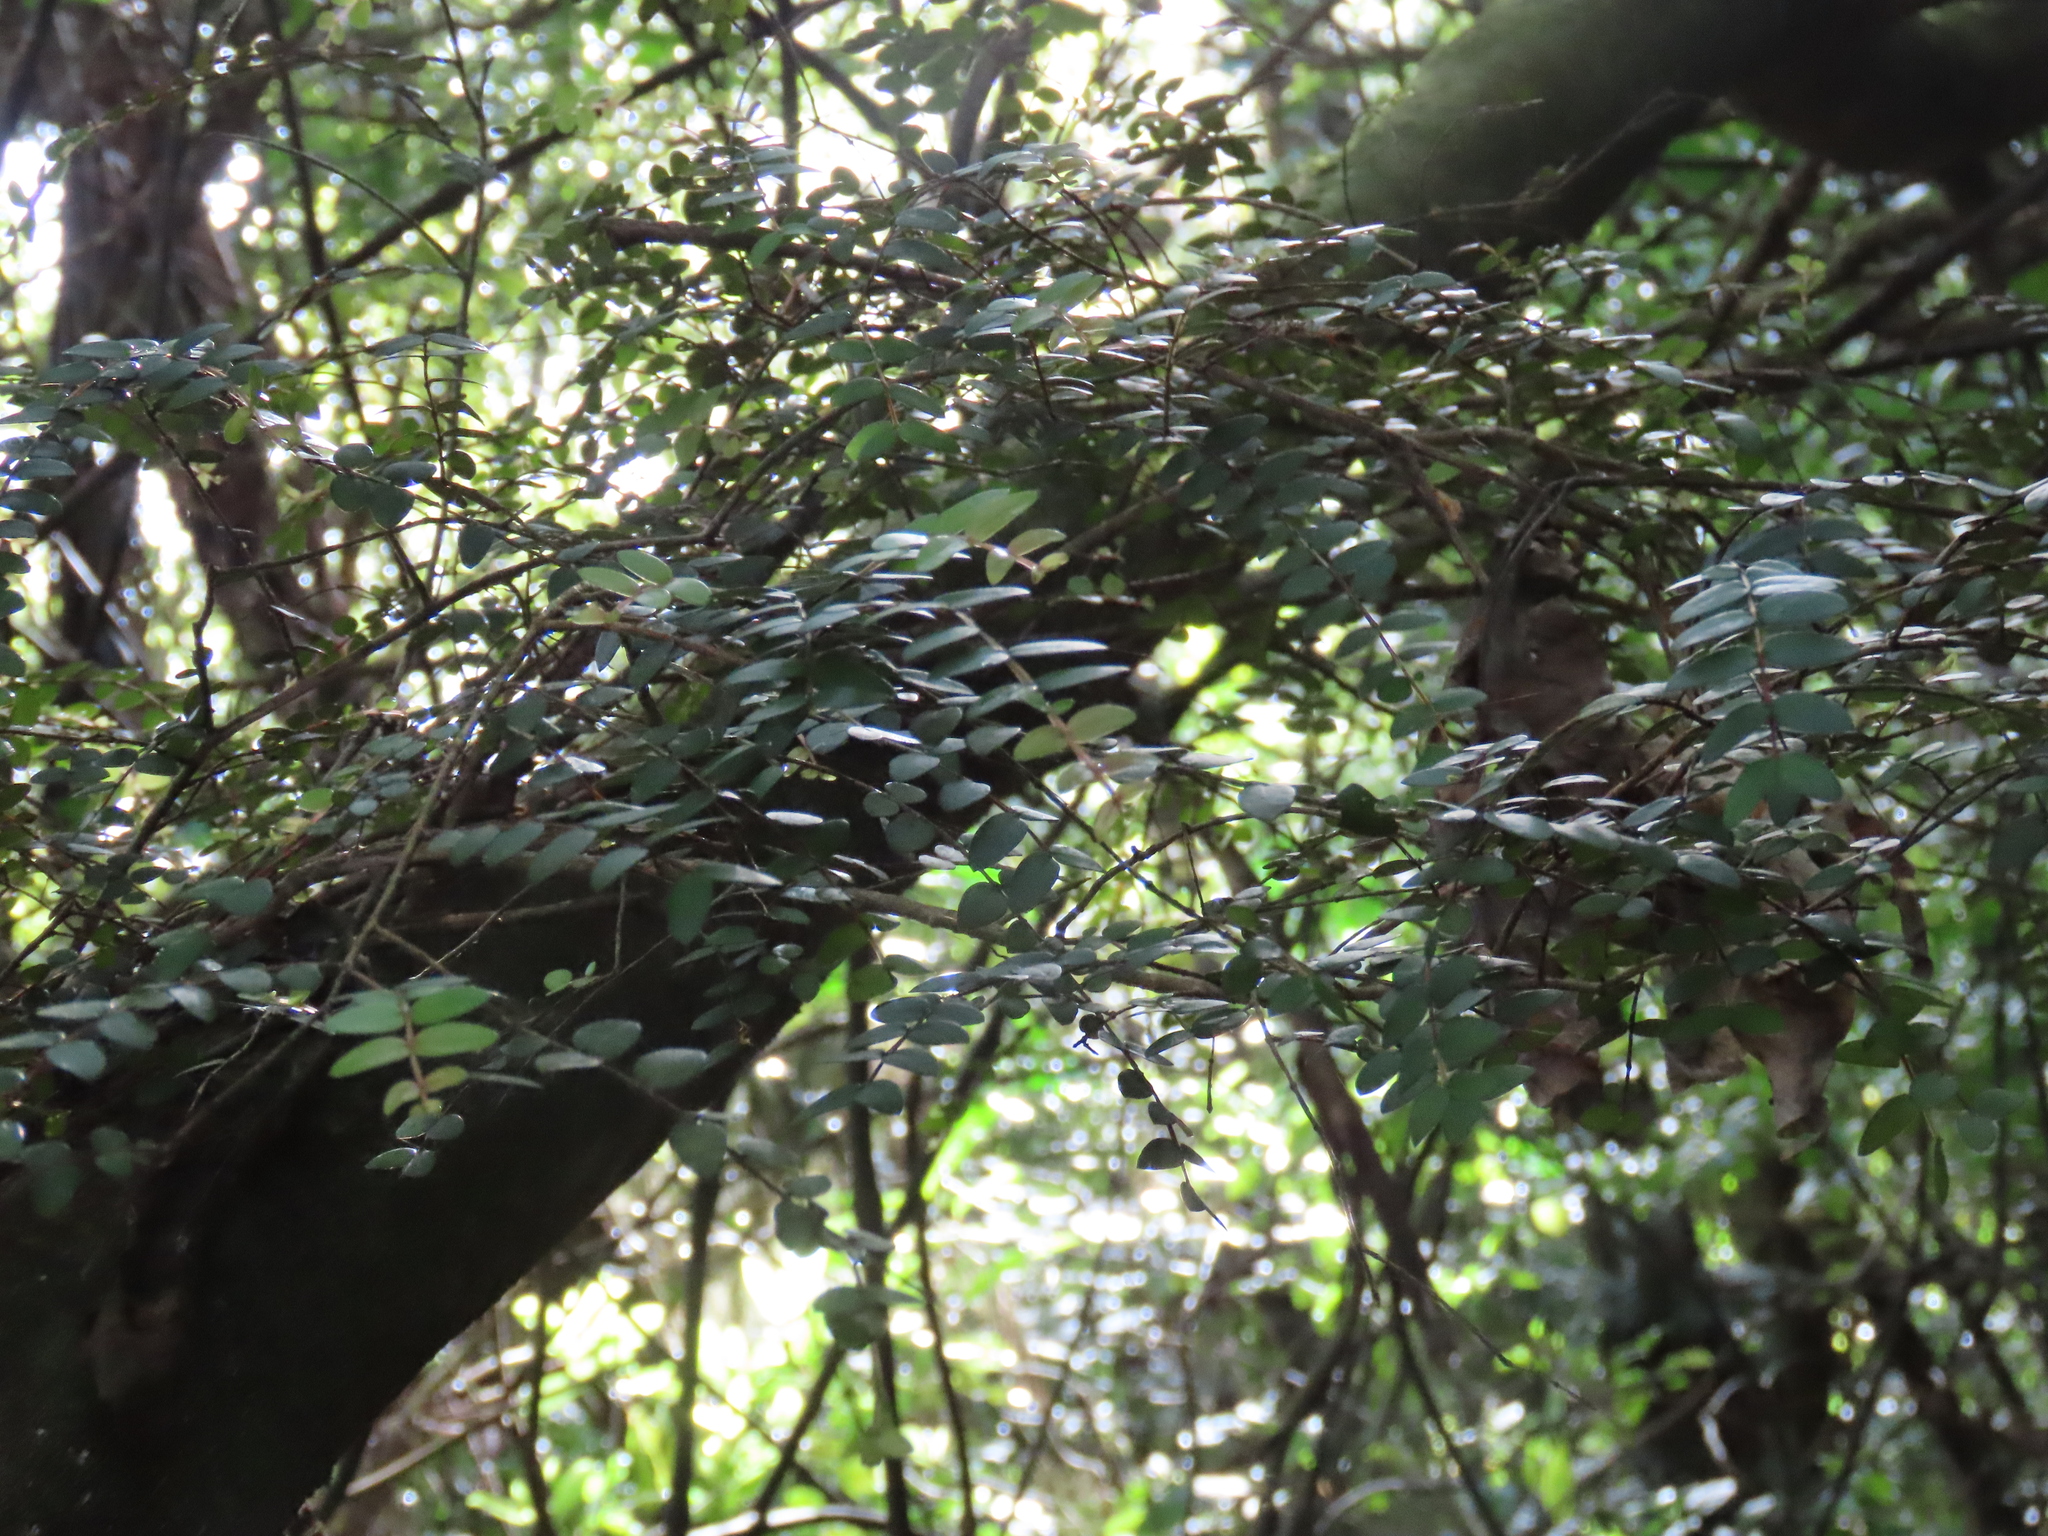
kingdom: Plantae
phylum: Tracheophyta
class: Magnoliopsida
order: Myrtales
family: Myrtaceae
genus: Metrosideros
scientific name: Metrosideros diffusa
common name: Small ratavine
